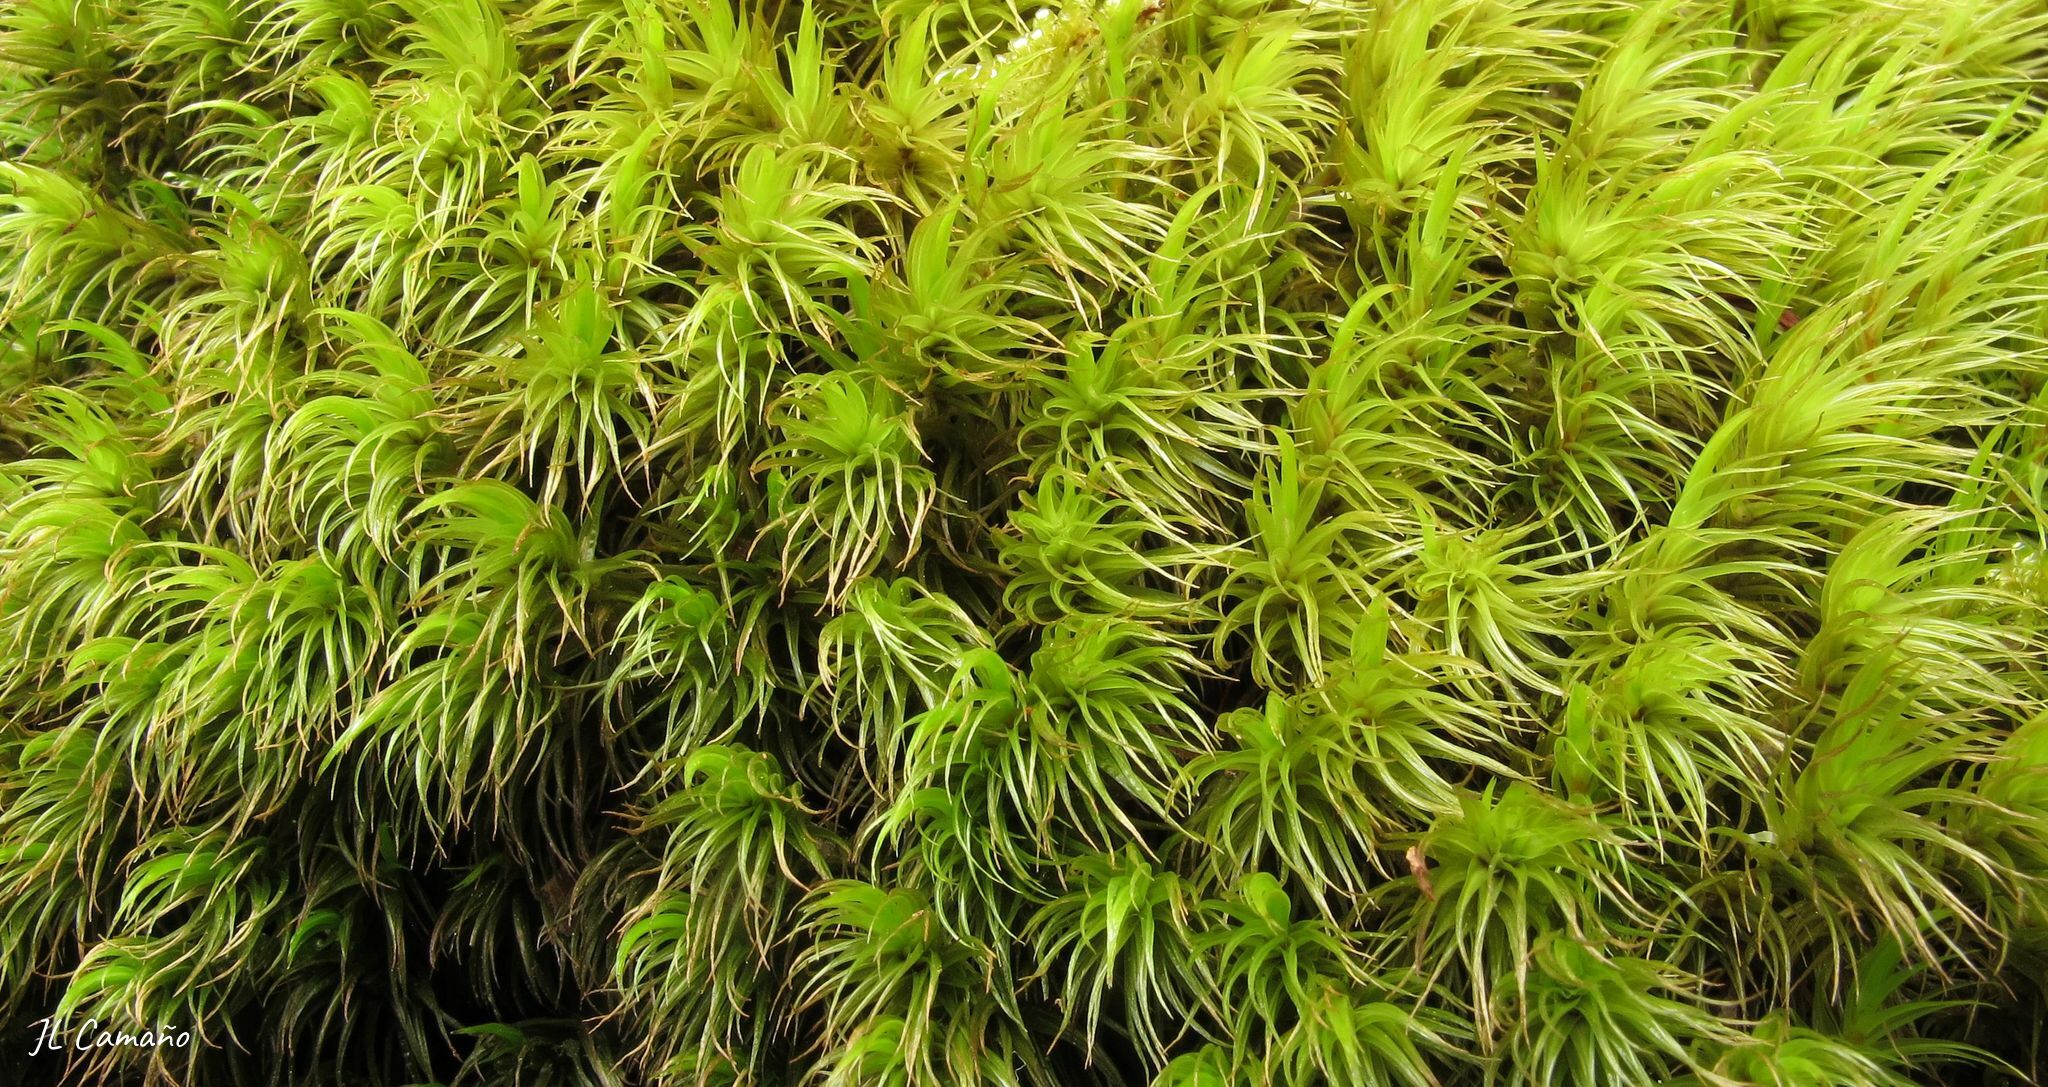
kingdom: Plantae
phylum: Bryophyta
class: Bryopsida
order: Dicranales
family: Dicranaceae
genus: Dicranum
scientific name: Dicranum scoparium
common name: Broom fork-moss
